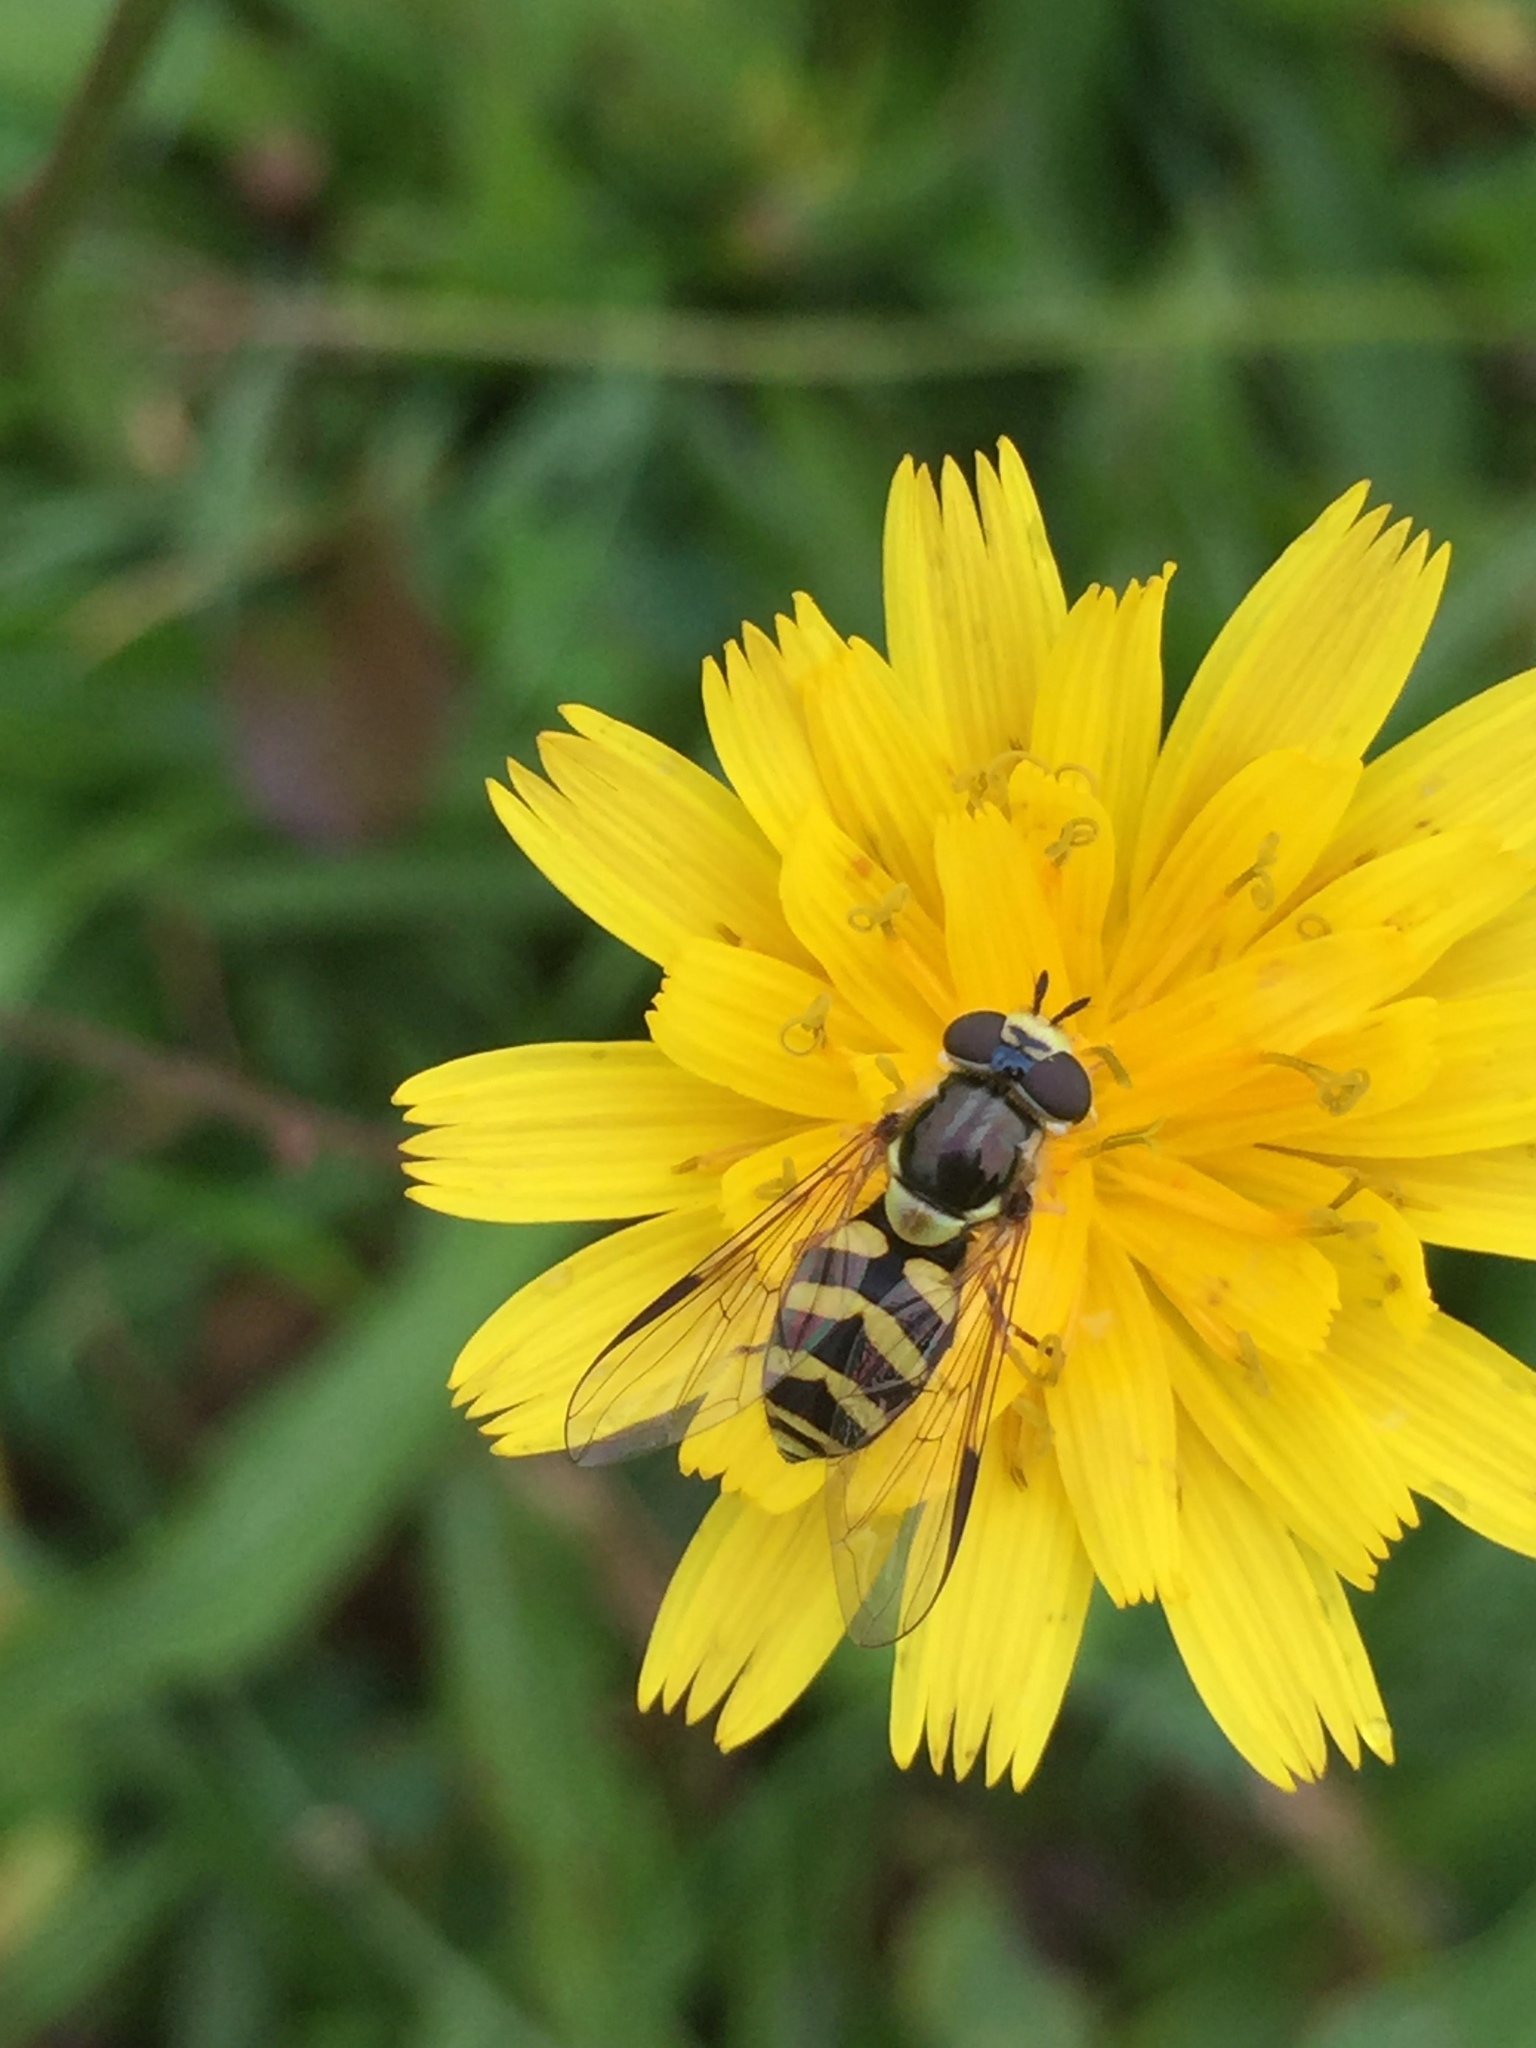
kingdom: Animalia
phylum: Arthropoda
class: Insecta
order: Diptera
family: Syrphidae
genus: Dasysyrphus
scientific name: Dasysyrphus albostriatus
